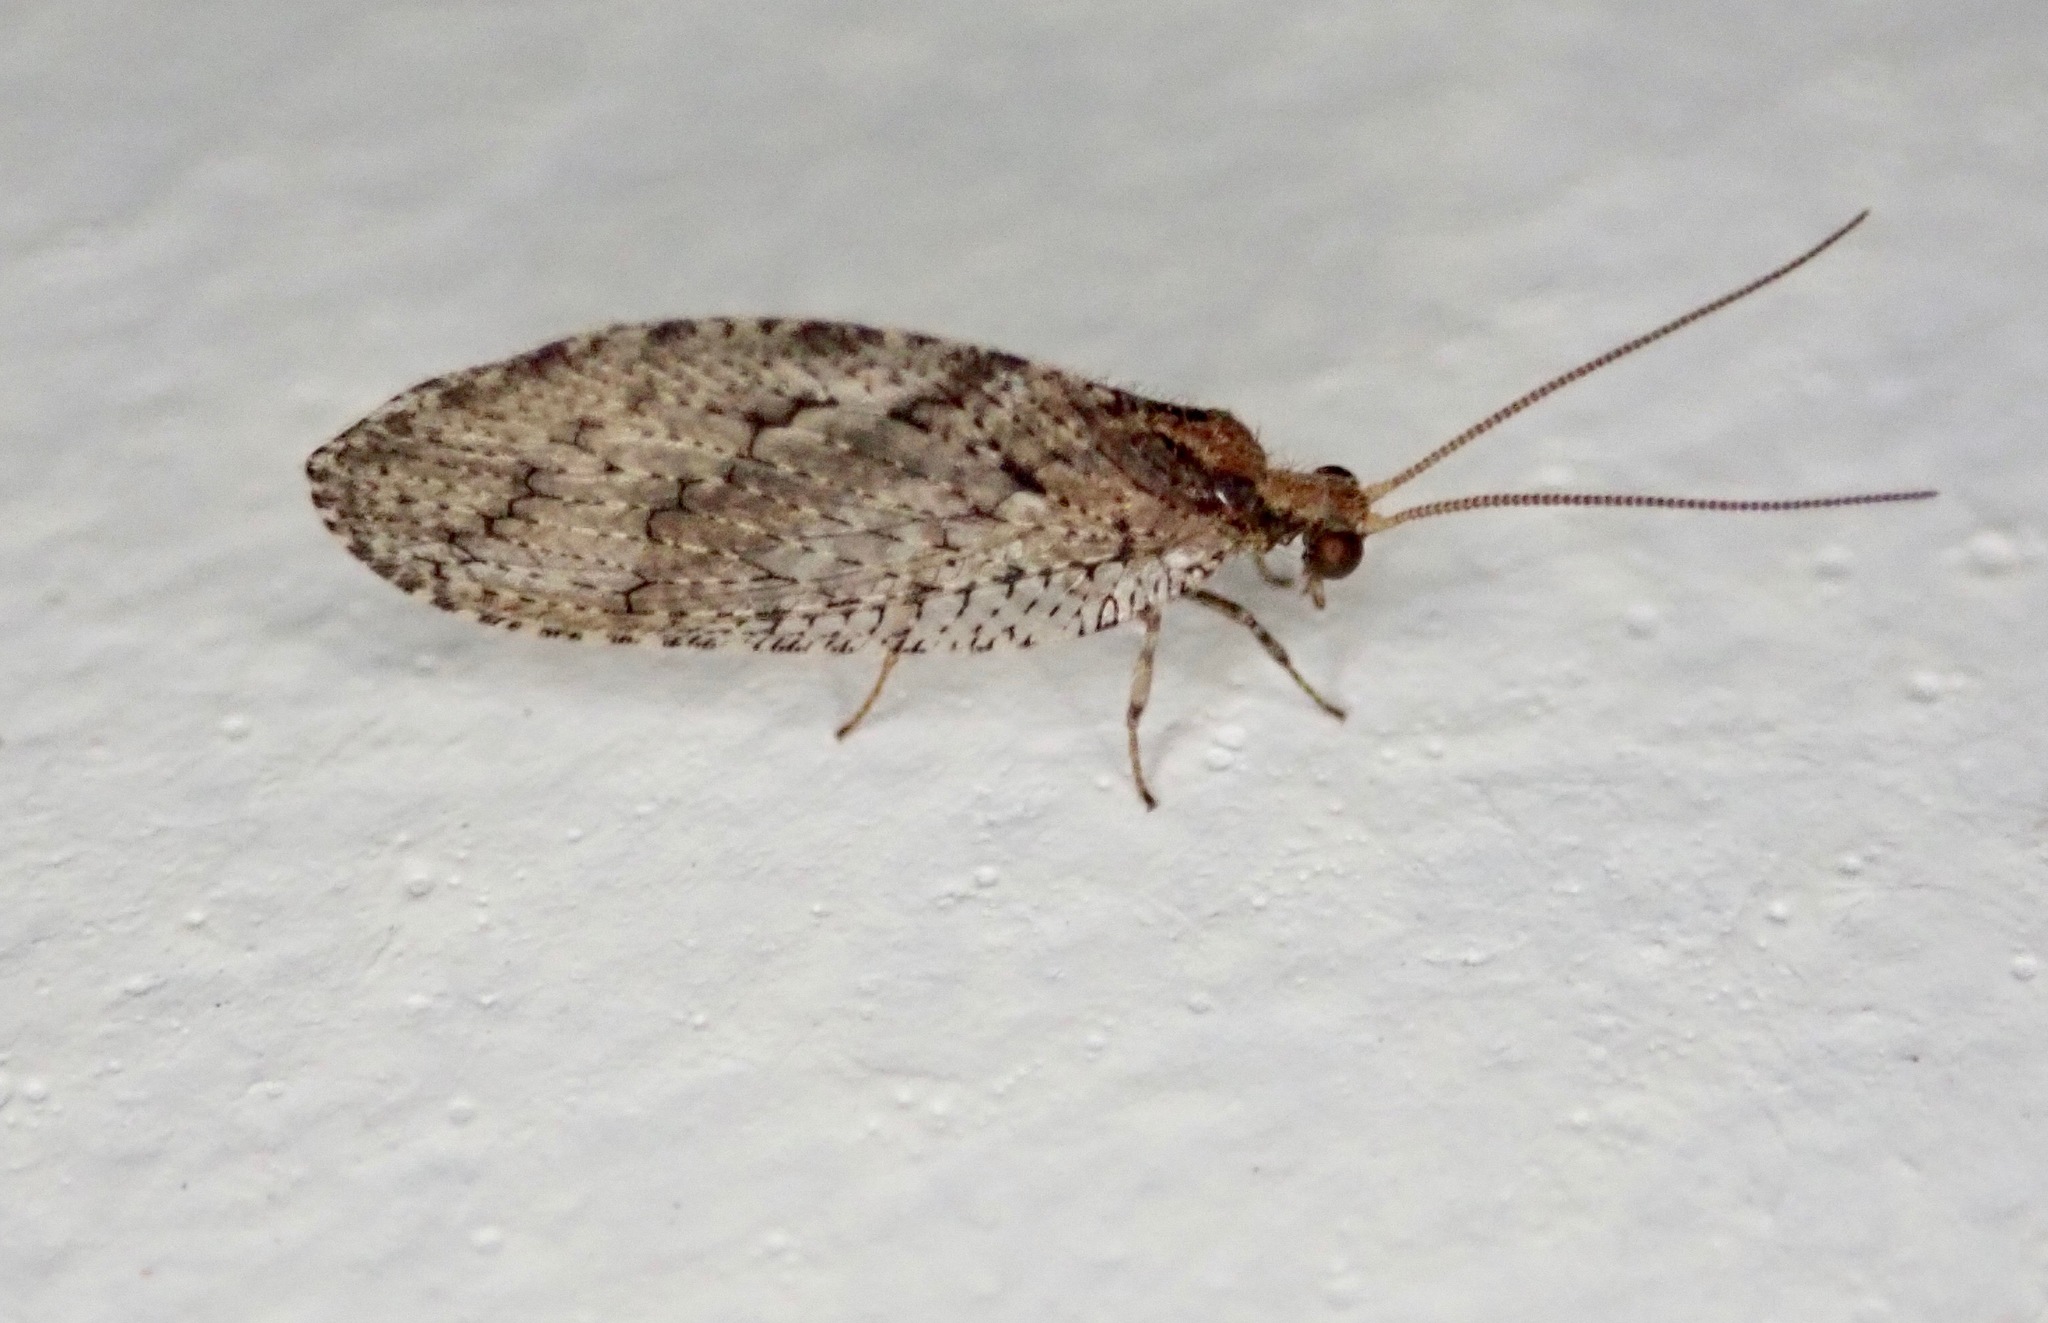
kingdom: Animalia
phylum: Arthropoda
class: Insecta
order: Neuroptera
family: Hemerobiidae
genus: Wesmaelius
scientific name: Wesmaelius subnebulosus
